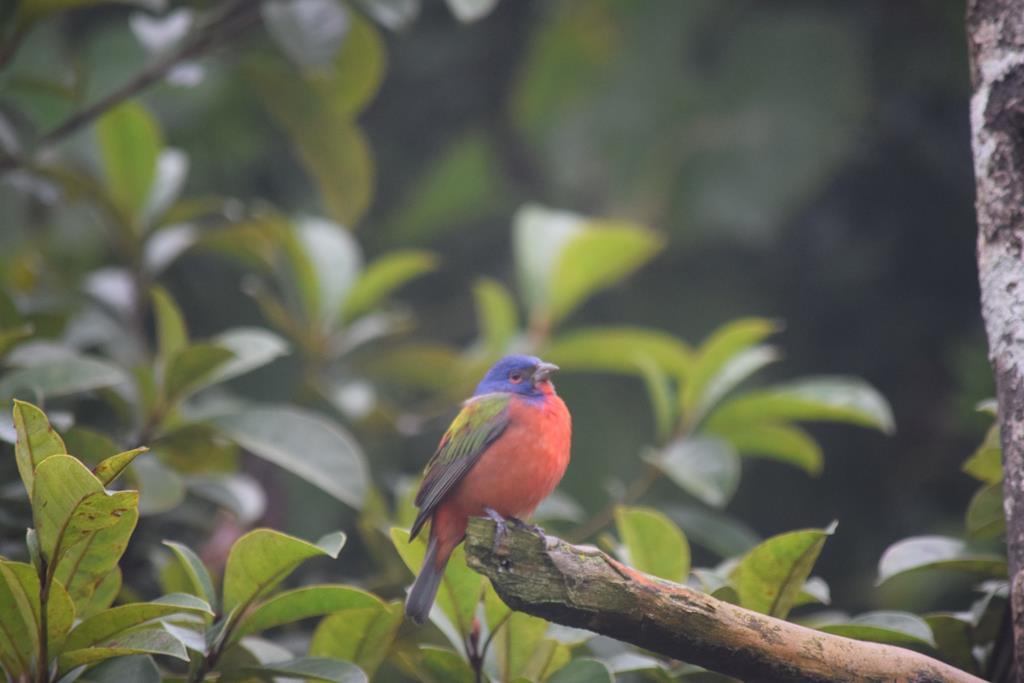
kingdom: Animalia
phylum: Chordata
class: Aves
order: Passeriformes
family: Cardinalidae
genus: Passerina
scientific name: Passerina ciris
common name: Painted bunting
